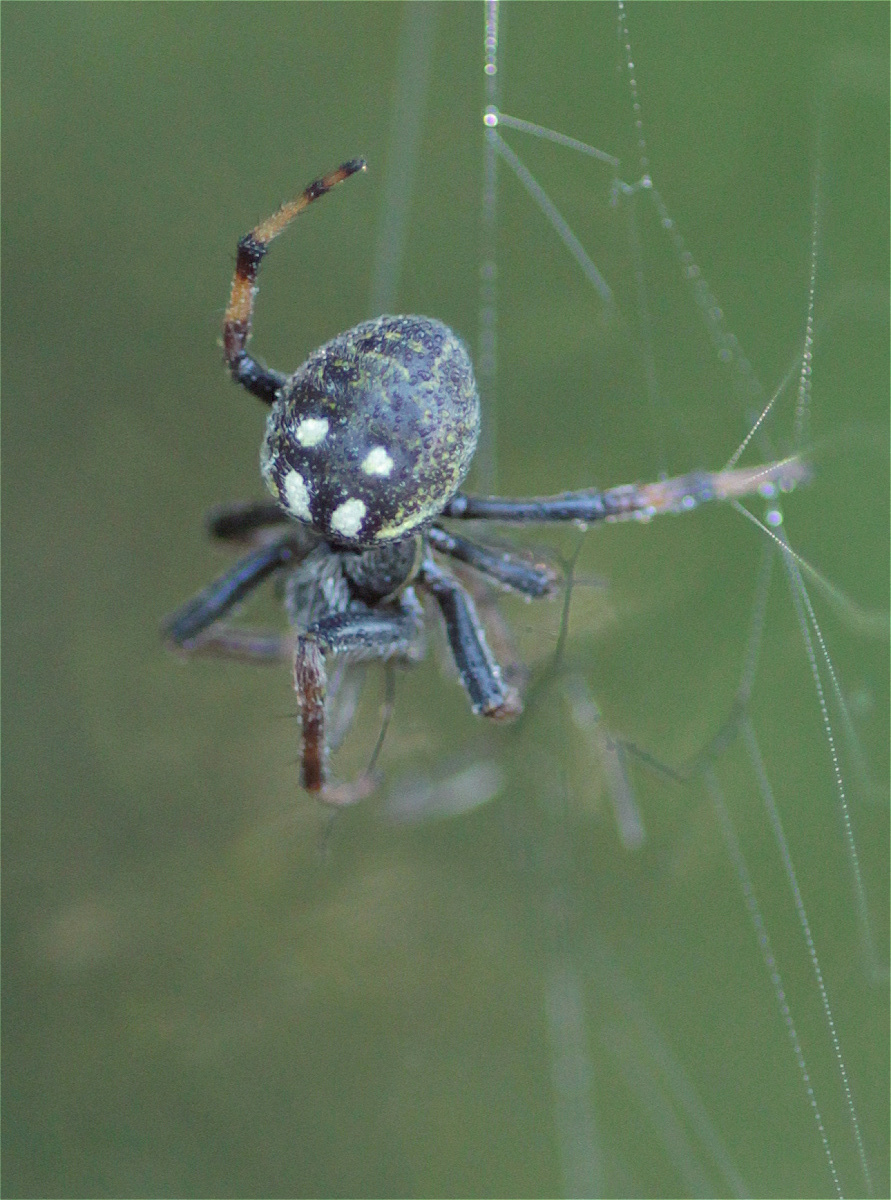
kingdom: Animalia
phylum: Arthropoda
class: Arachnida
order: Araneae
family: Araneidae
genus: Araneus
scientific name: Araneus granadensis
